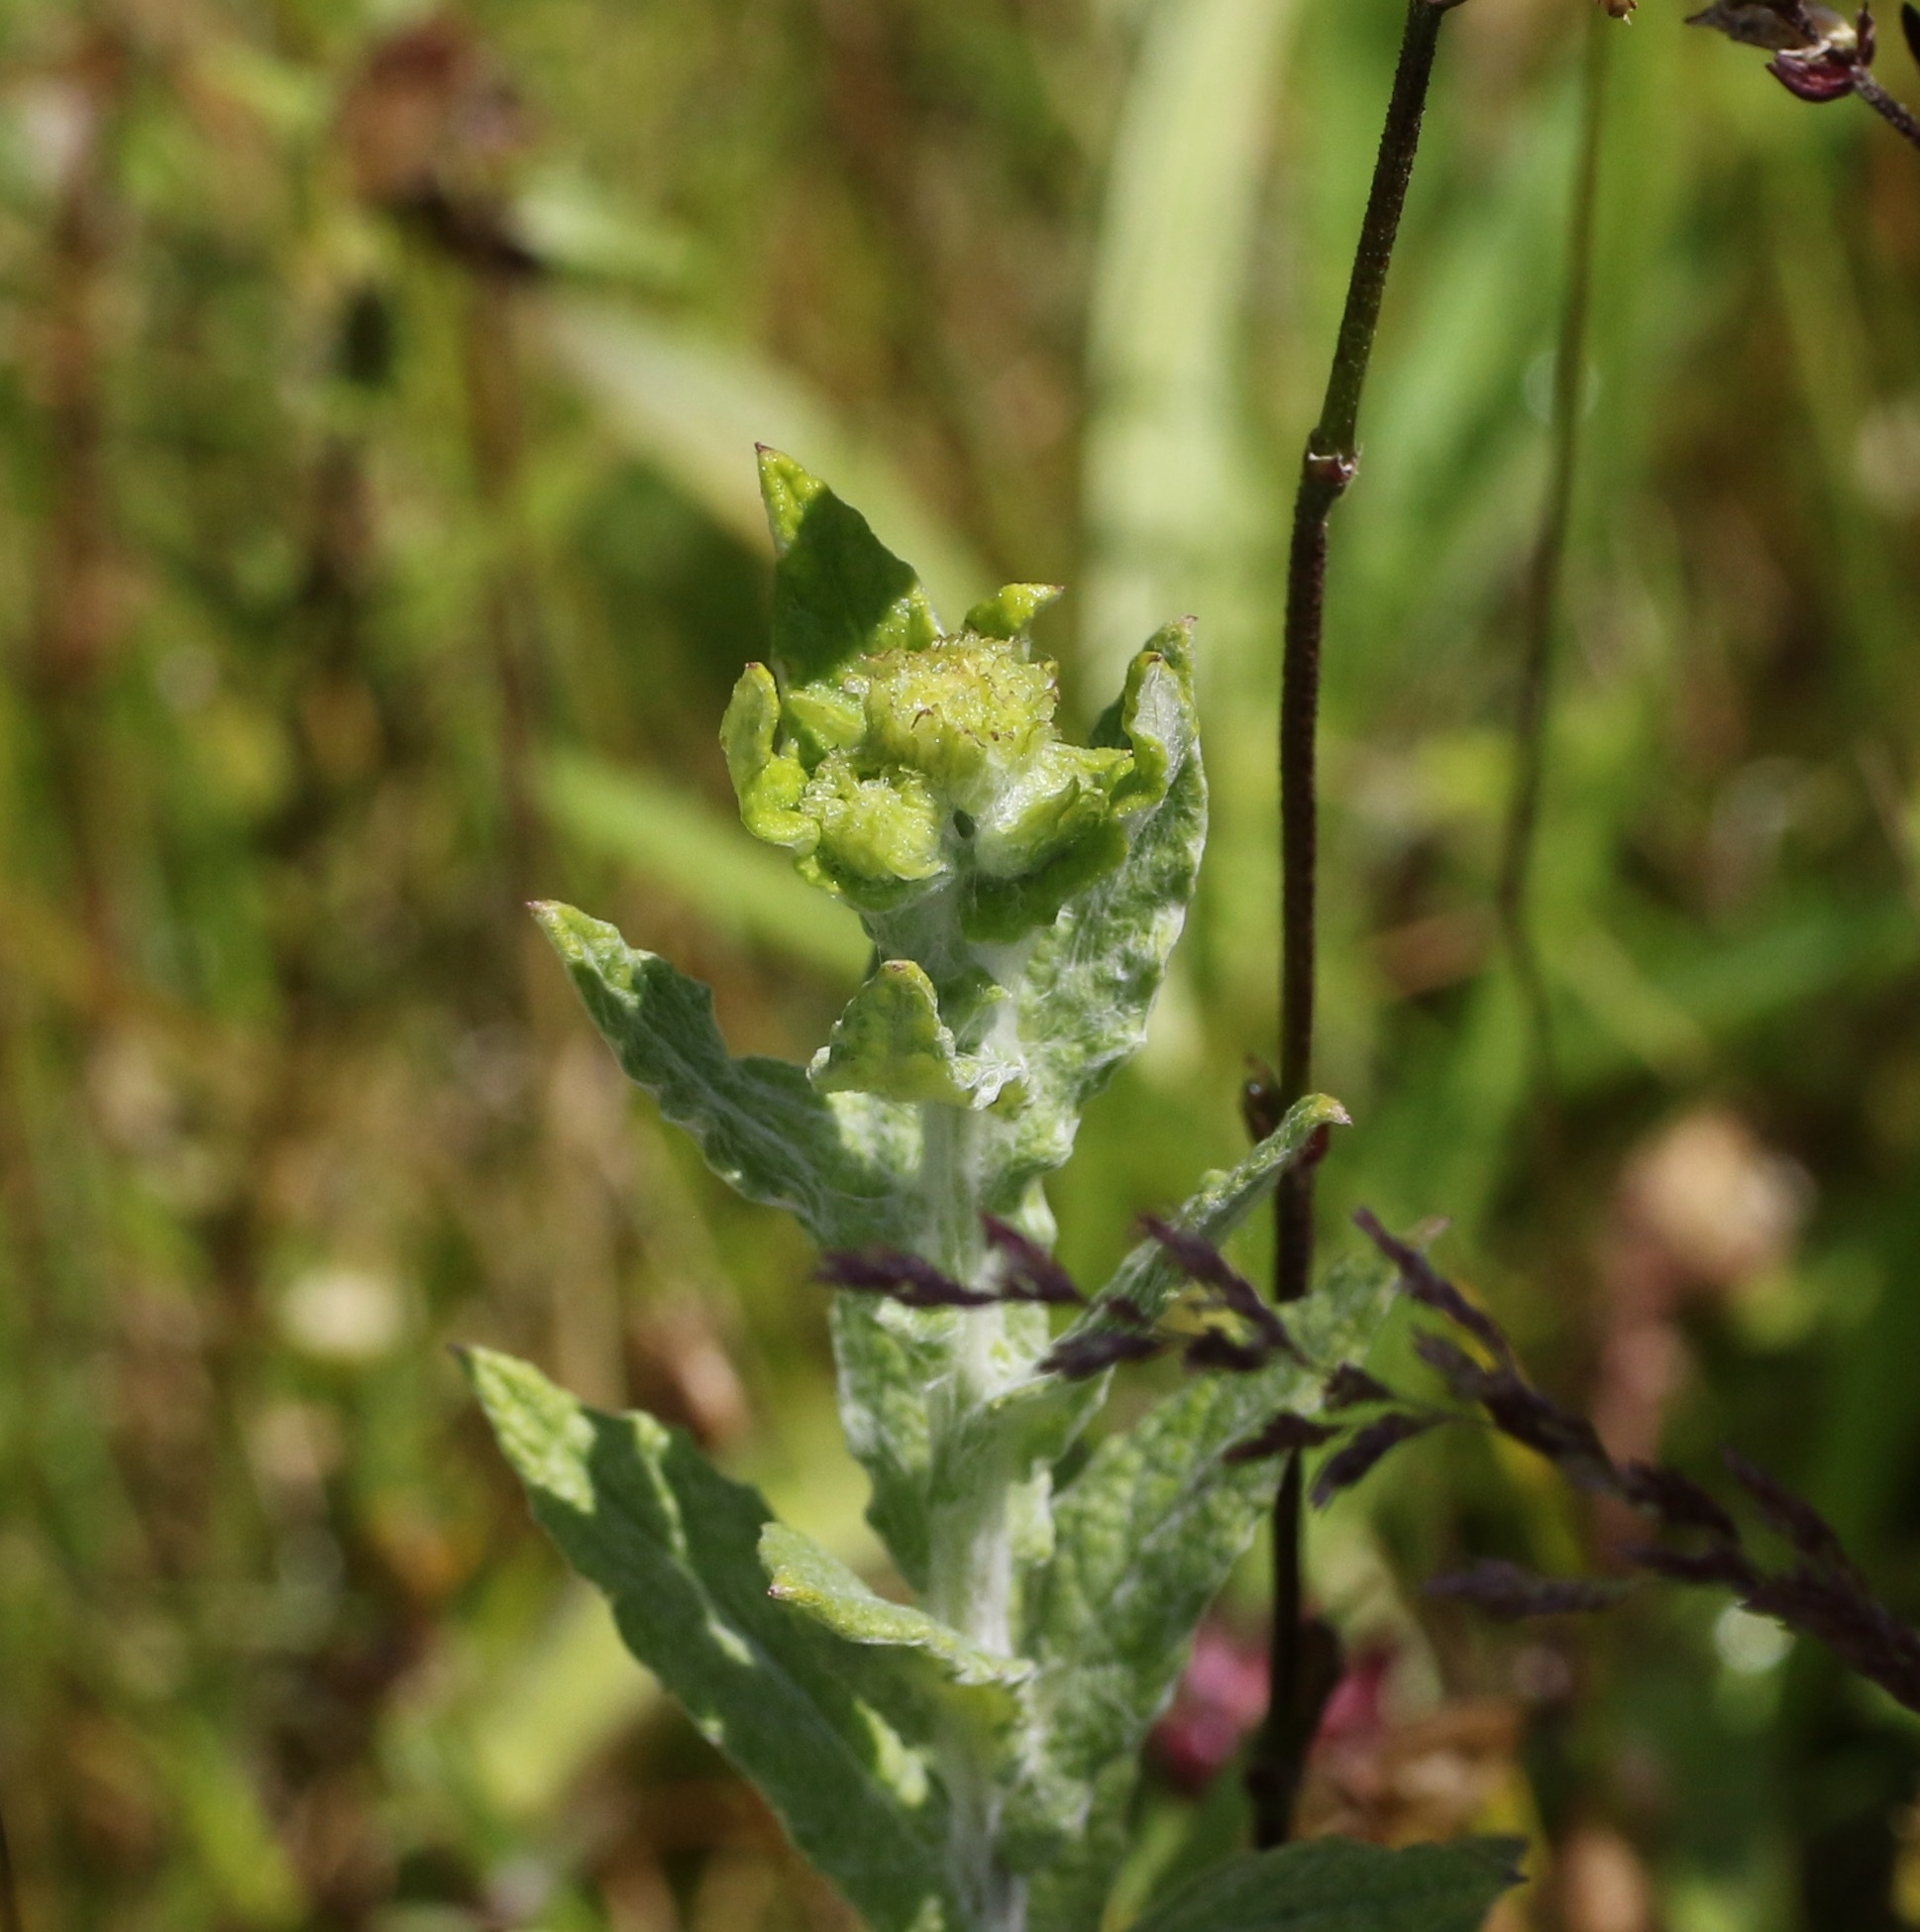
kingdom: Plantae
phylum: Tracheophyta
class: Magnoliopsida
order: Asterales
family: Asteraceae
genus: Pulicaria
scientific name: Pulicaria dysenterica
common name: Common fleabane
